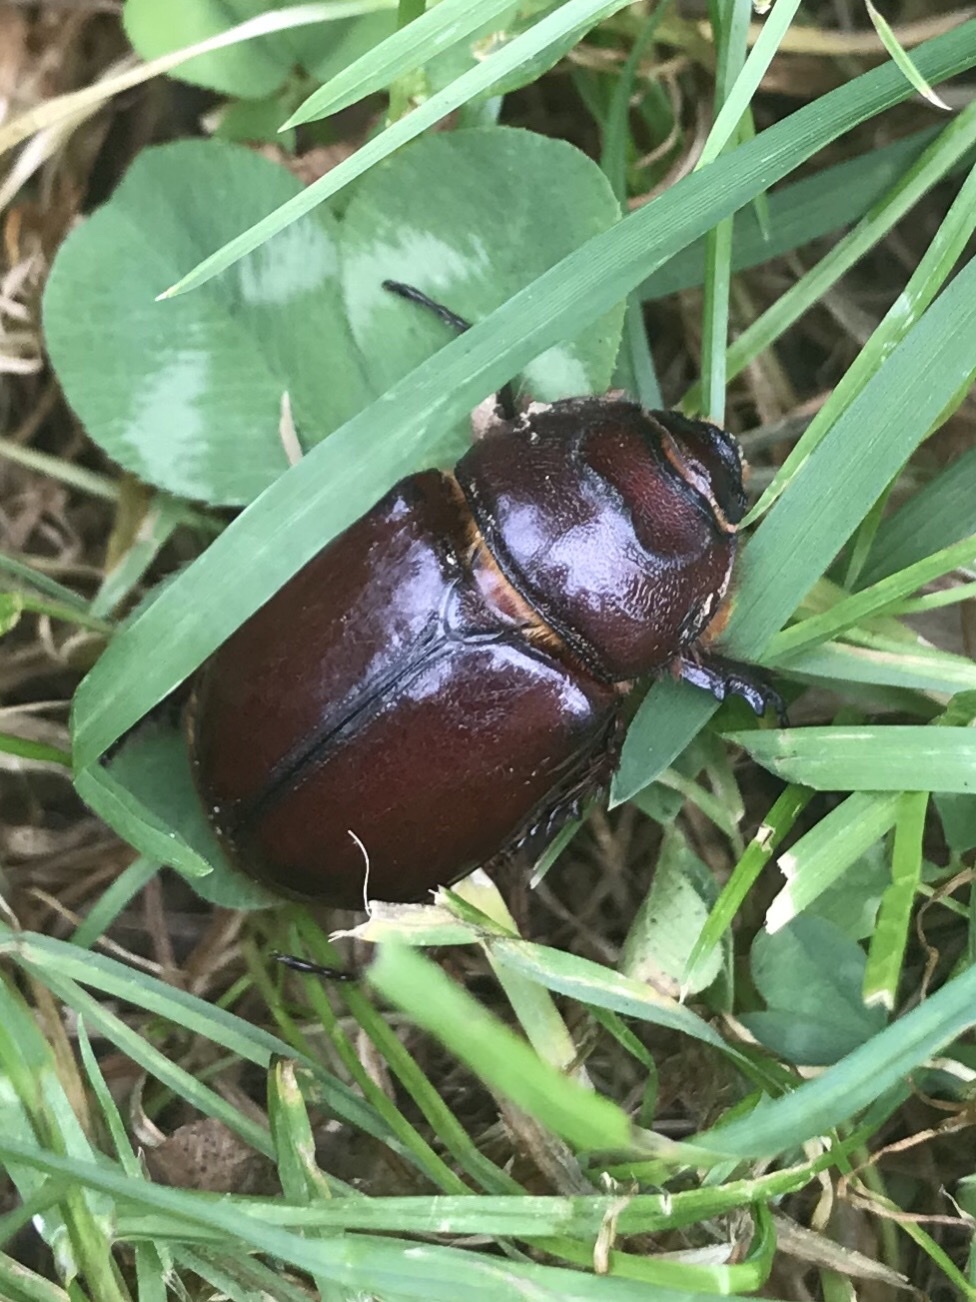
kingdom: Animalia
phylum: Arthropoda
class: Insecta
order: Coleoptera
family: Scarabaeidae
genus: Oryctes
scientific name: Oryctes nasicornis
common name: European rhinoceros beetle
